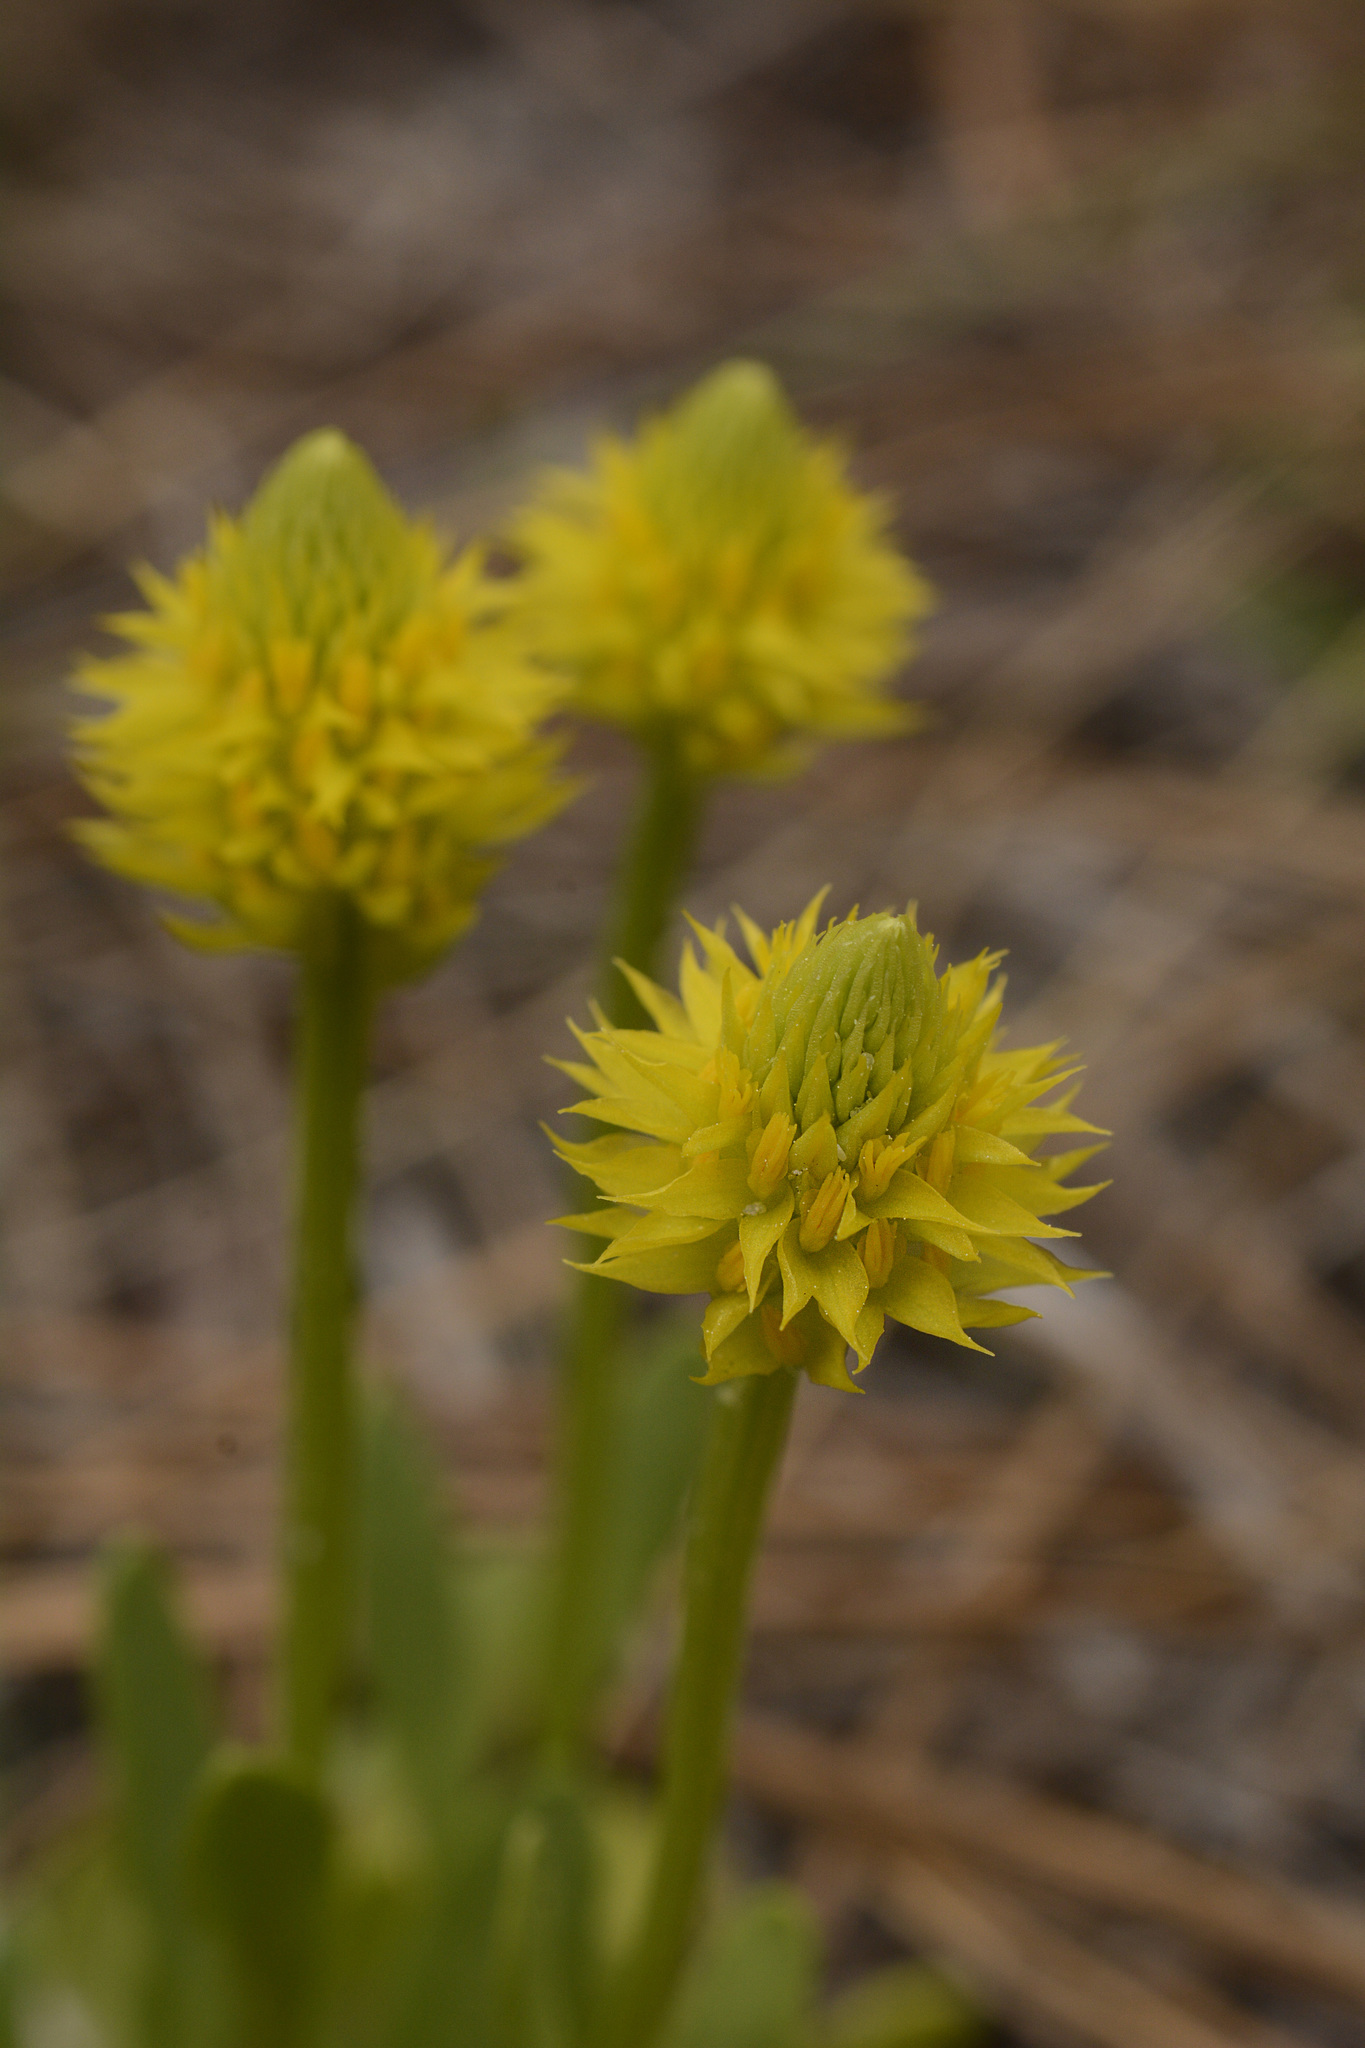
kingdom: Plantae
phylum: Tracheophyta
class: Magnoliopsida
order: Fabales
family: Polygalaceae
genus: Polygala
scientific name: Polygala nana
